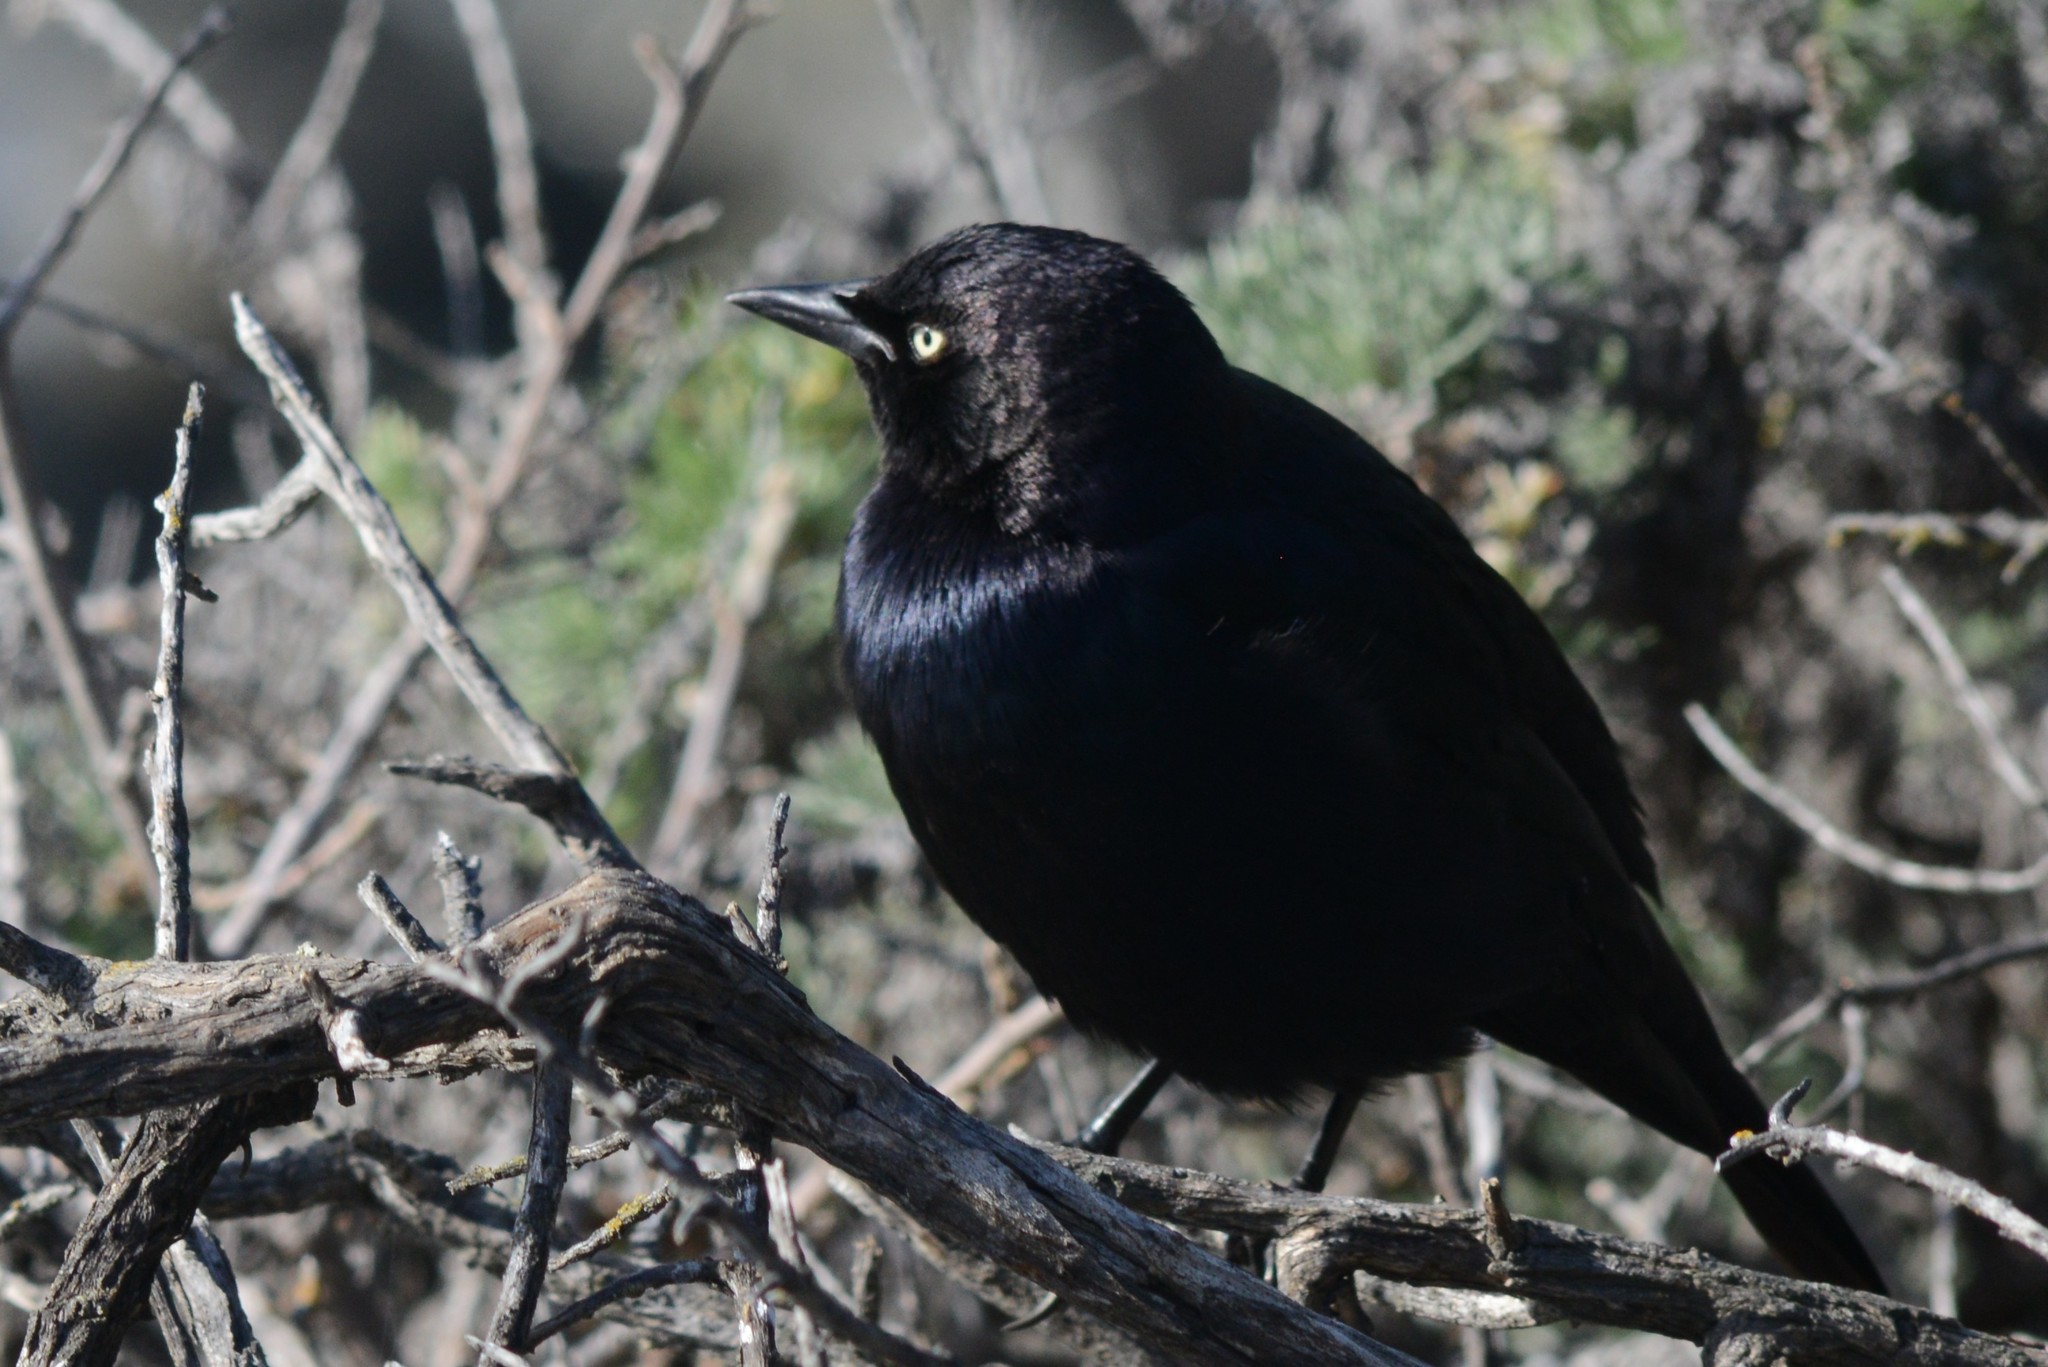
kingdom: Animalia
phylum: Chordata
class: Aves
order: Passeriformes
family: Icteridae
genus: Euphagus
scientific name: Euphagus cyanocephalus
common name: Brewer's blackbird
